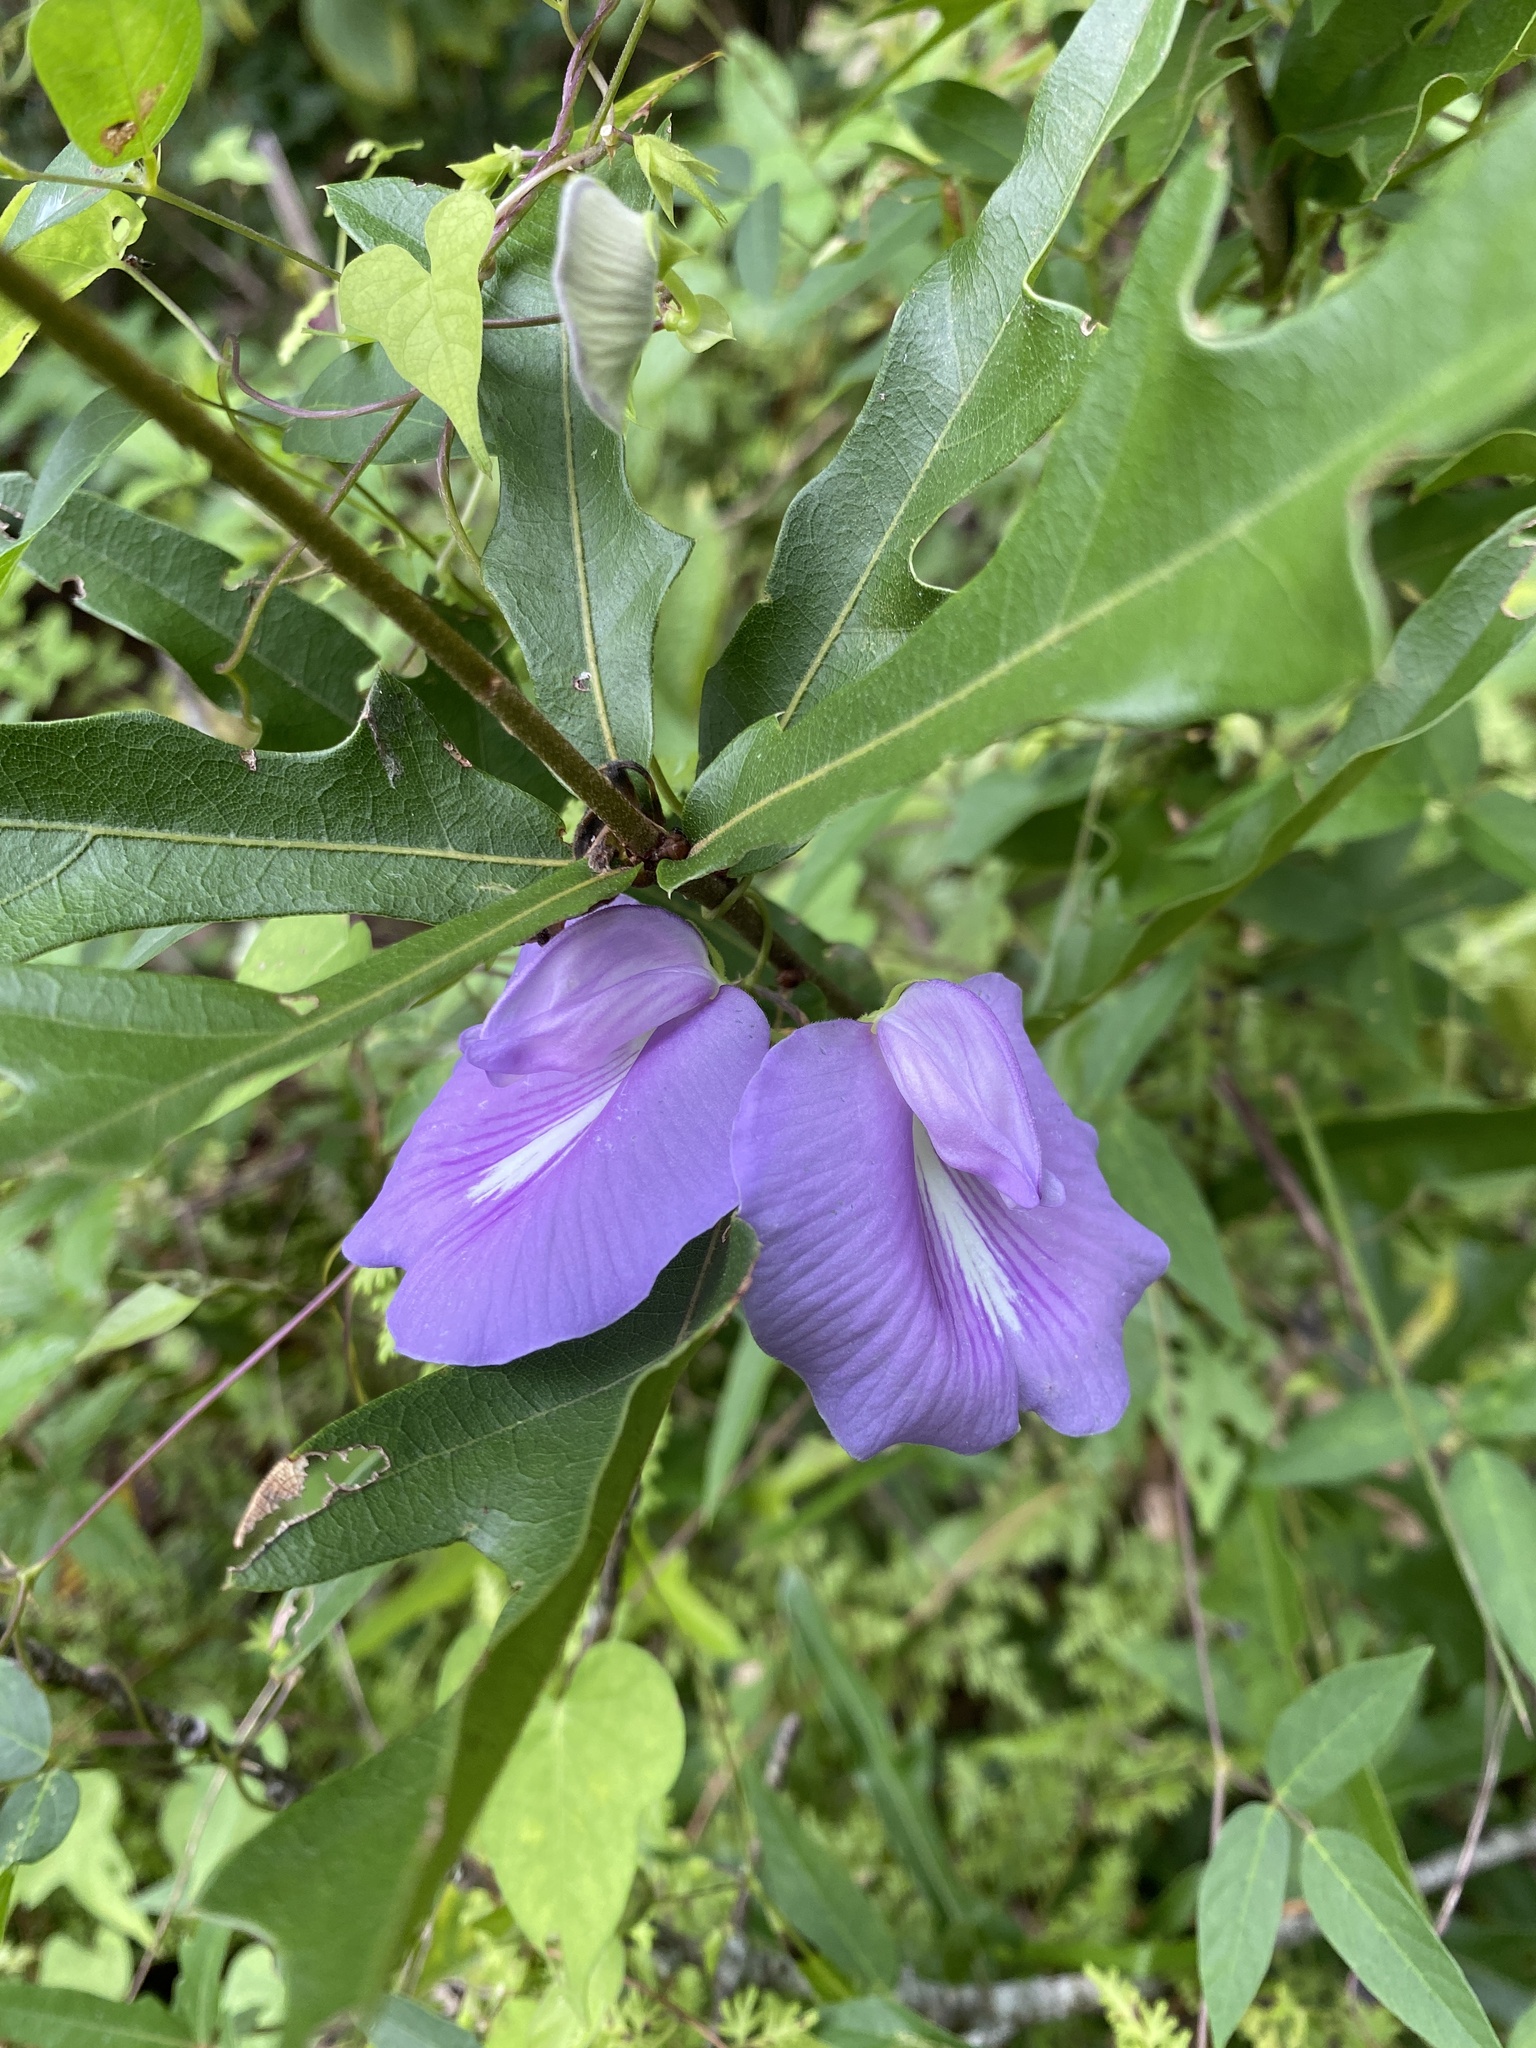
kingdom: Plantae
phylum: Tracheophyta
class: Magnoliopsida
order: Fabales
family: Fabaceae
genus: Centrosema
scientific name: Centrosema virginianum
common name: Butterfly-pea
